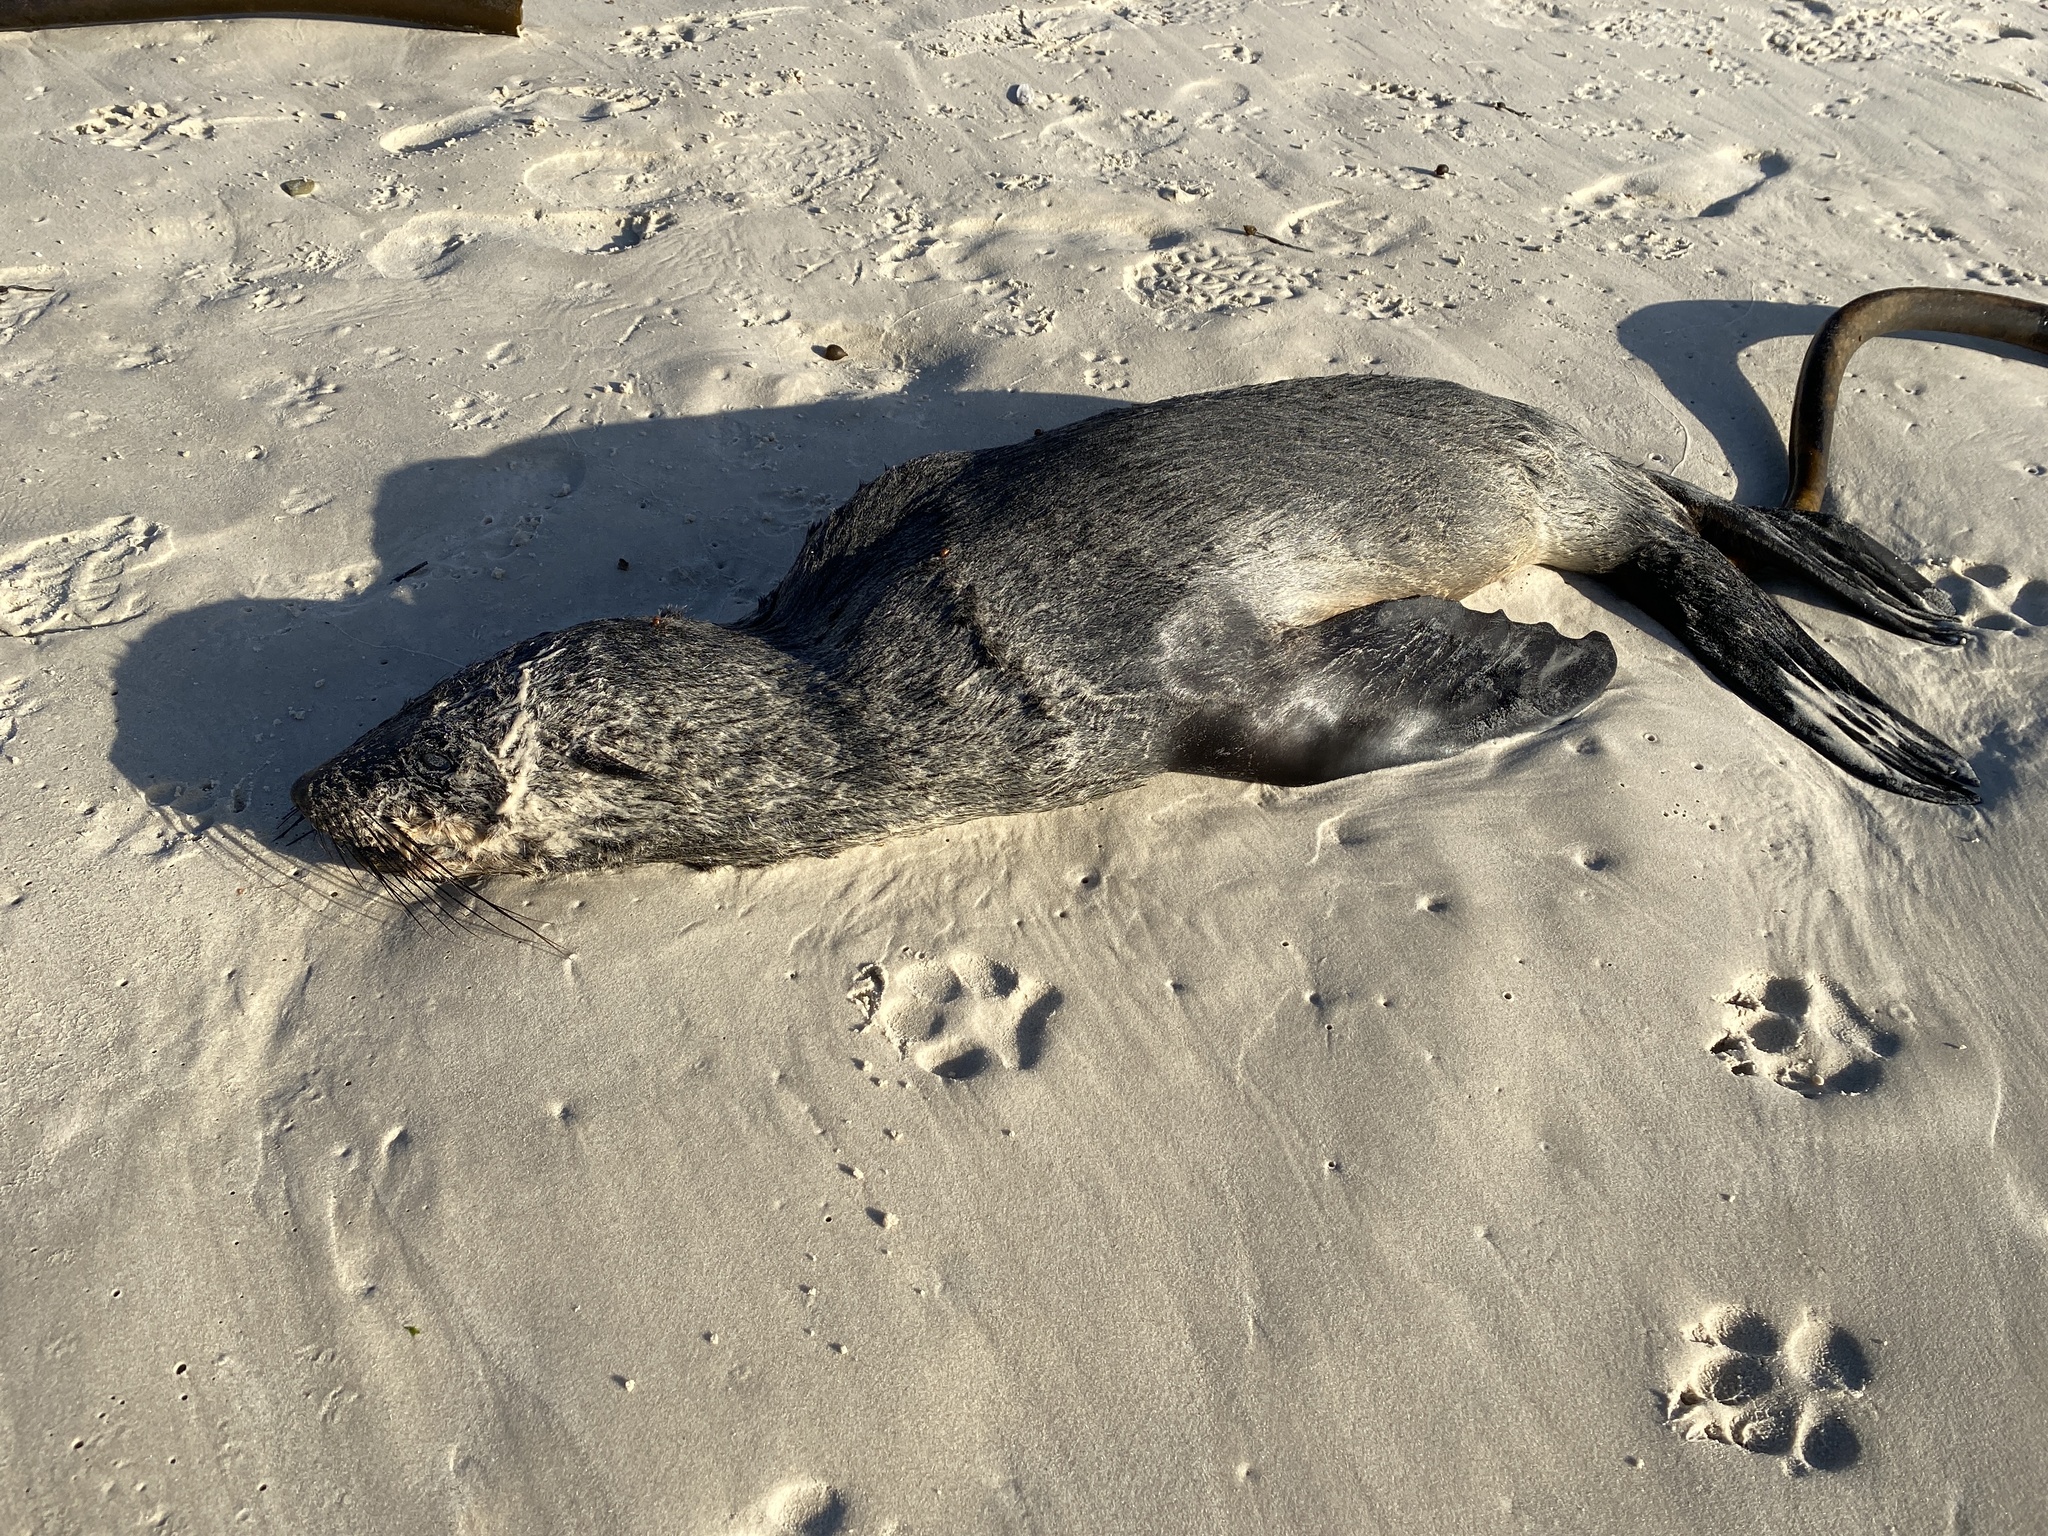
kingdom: Animalia
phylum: Chordata
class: Mammalia
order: Carnivora
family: Otariidae
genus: Arctocephalus
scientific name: Arctocephalus pusillus
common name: Brown fur seal
